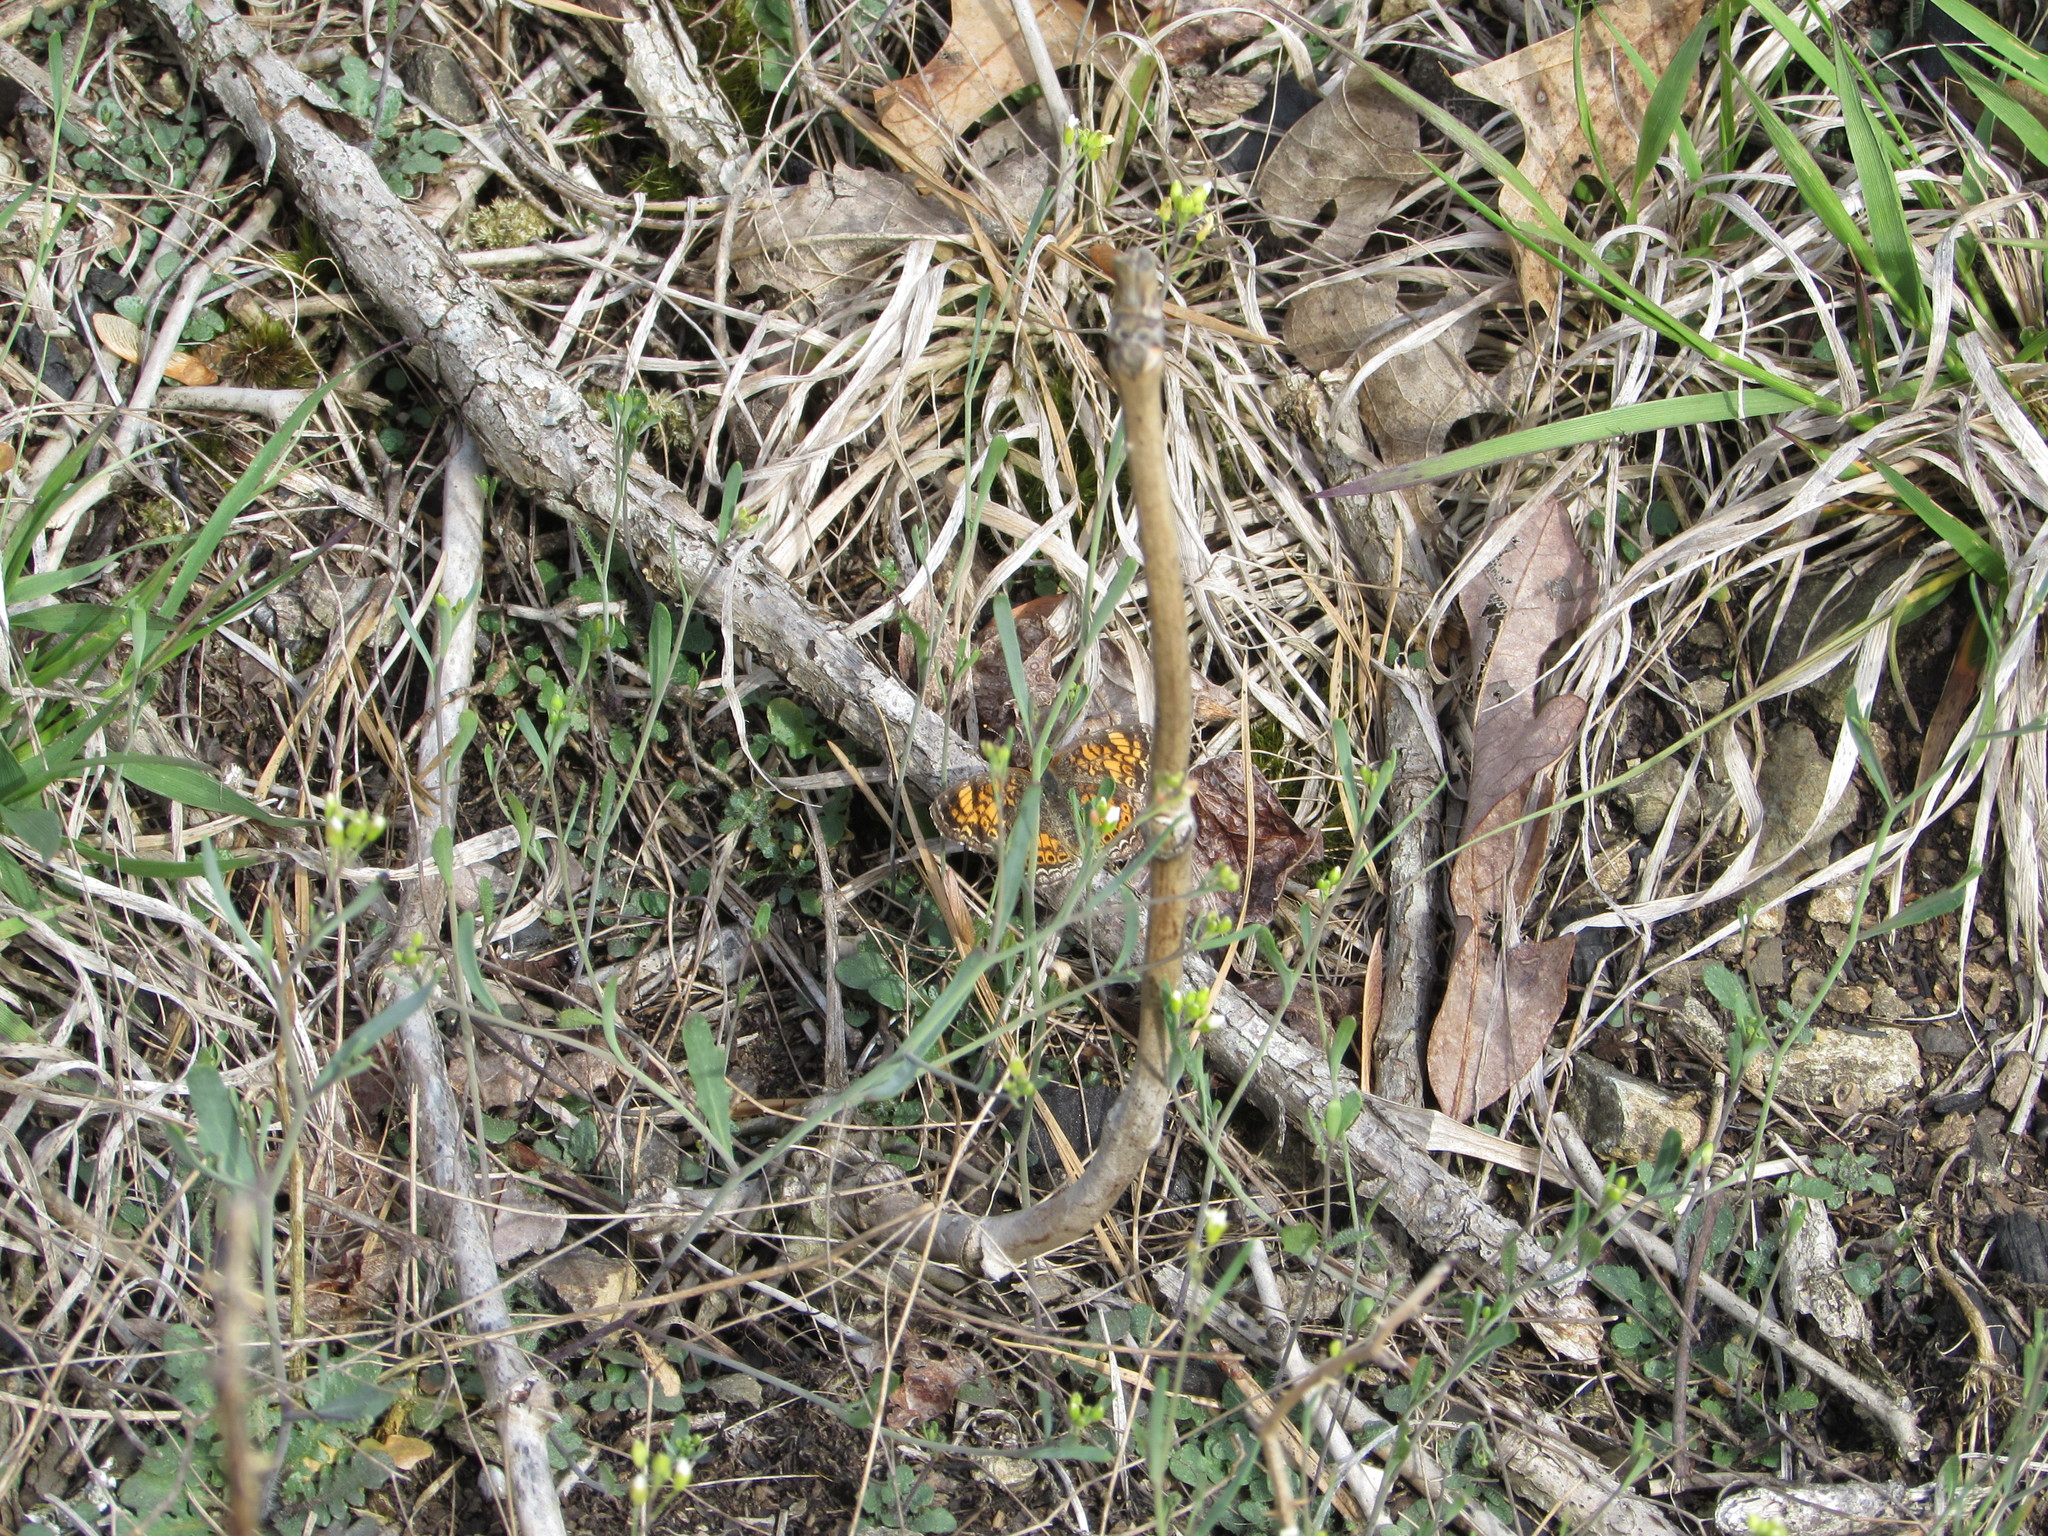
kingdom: Animalia
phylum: Arthropoda
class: Insecta
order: Lepidoptera
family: Nymphalidae
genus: Phyciodes
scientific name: Phyciodes tharos
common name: Pearl crescent
